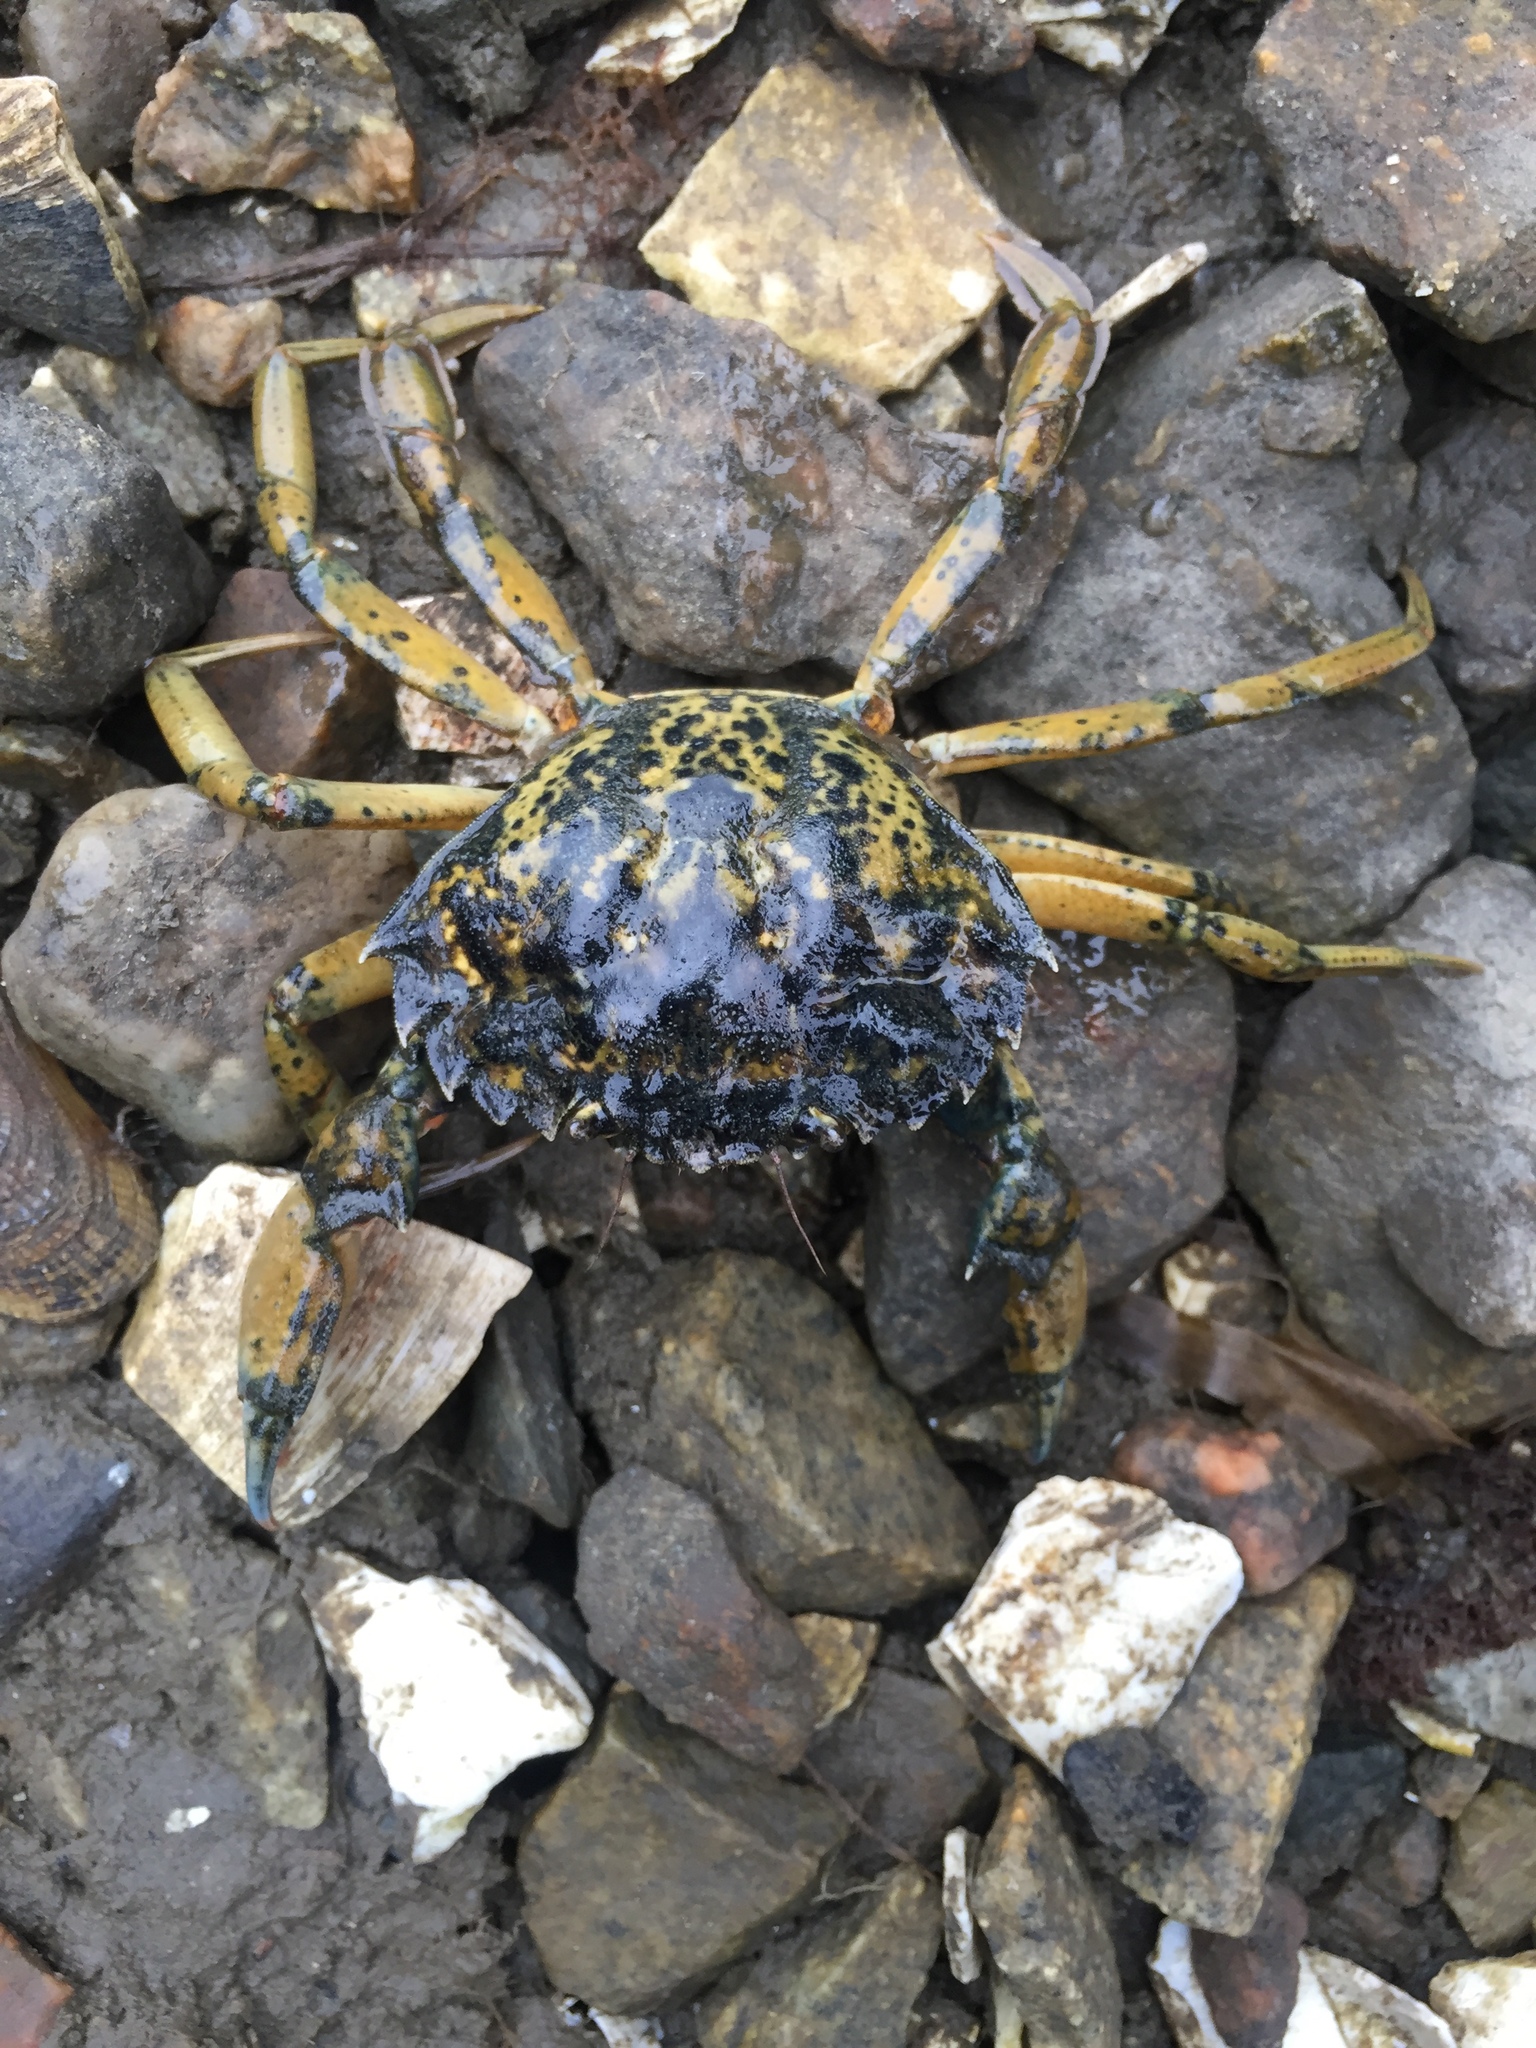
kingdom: Animalia
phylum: Arthropoda
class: Malacostraca
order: Decapoda
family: Carcinidae
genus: Carcinus
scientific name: Carcinus maenas
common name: European green crab
